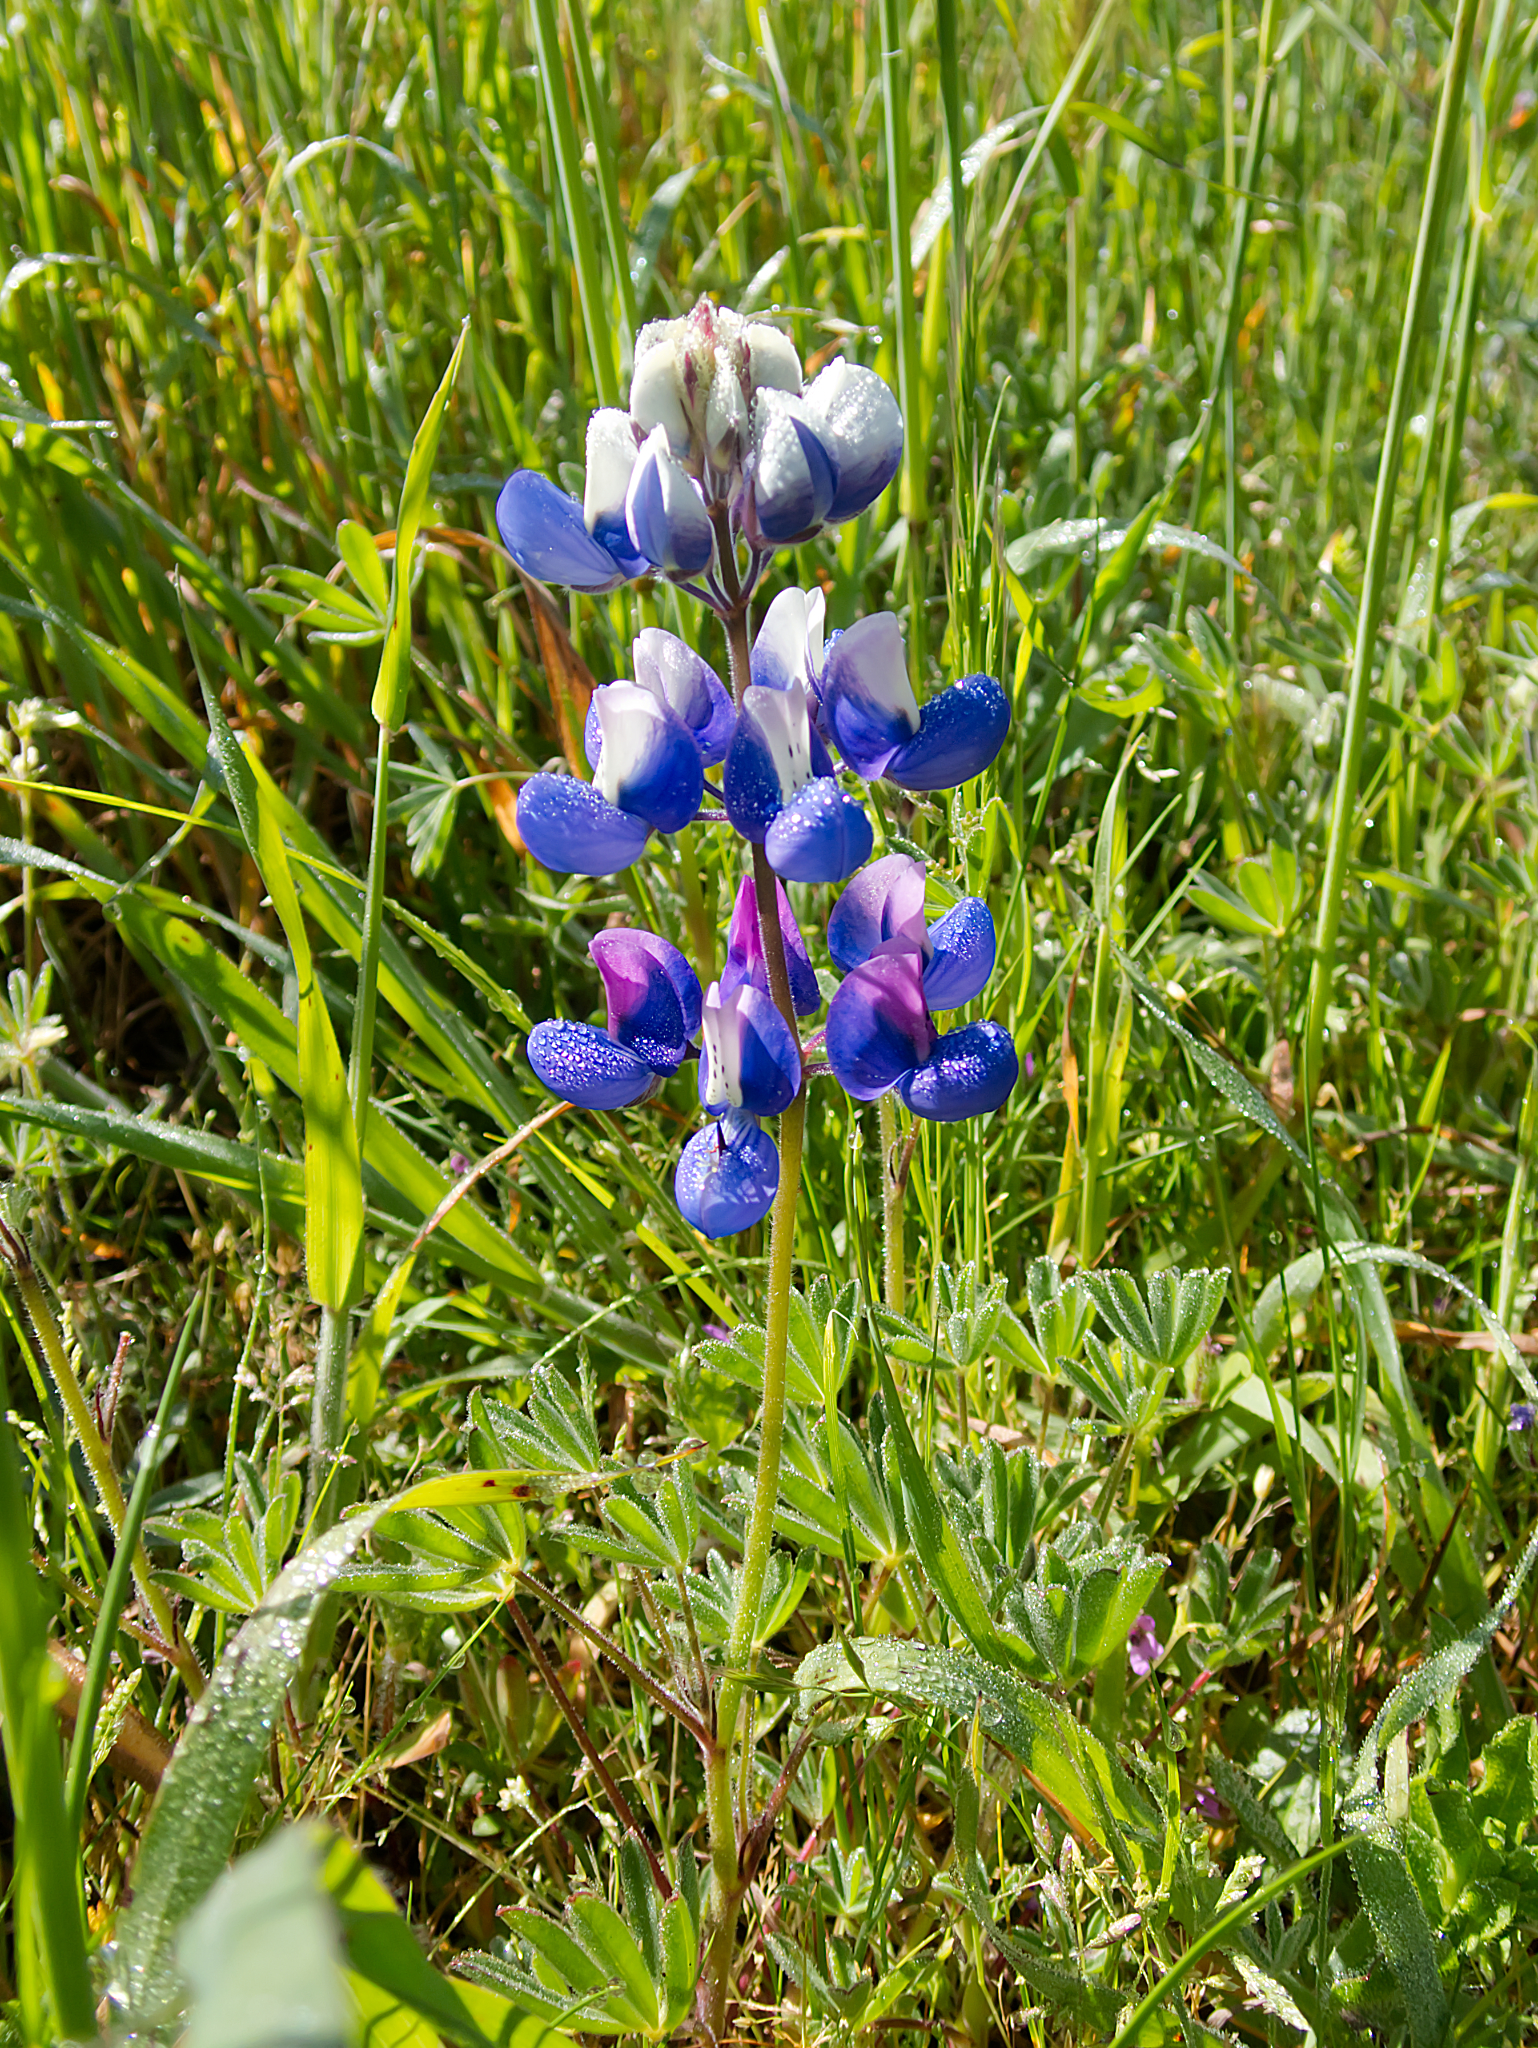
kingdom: Plantae
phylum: Tracheophyta
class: Magnoliopsida
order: Fabales
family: Fabaceae
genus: Lupinus
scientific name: Lupinus nanus
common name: Orean blue lupin
